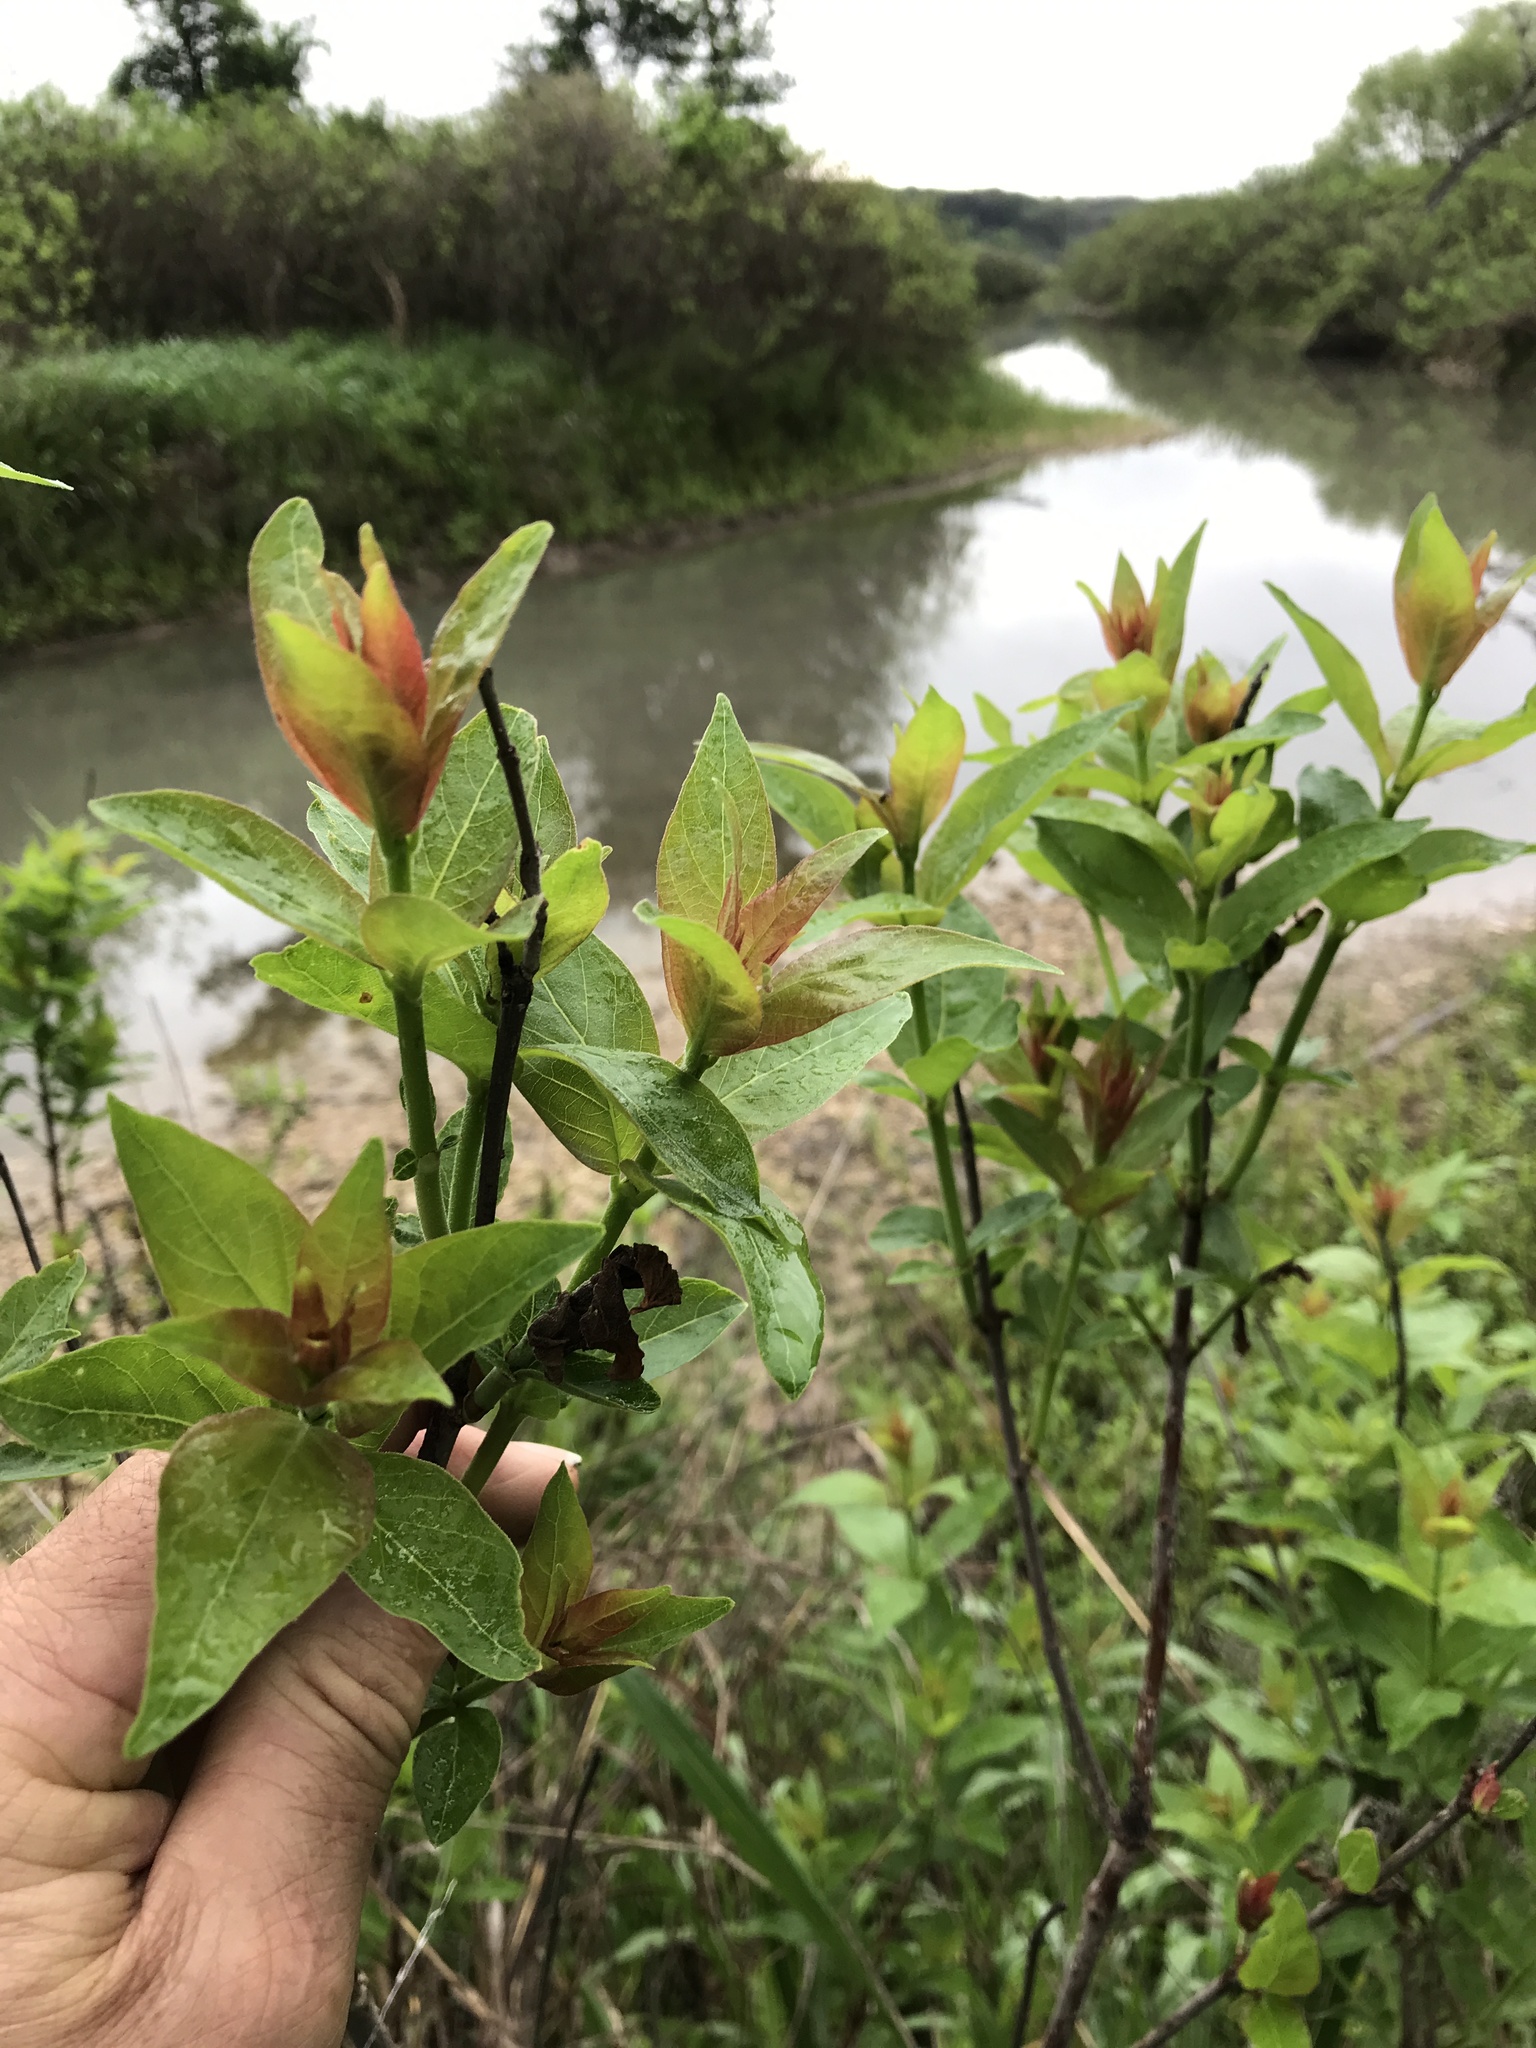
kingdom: Plantae
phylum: Tracheophyta
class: Magnoliopsida
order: Gentianales
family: Rubiaceae
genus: Cephalanthus
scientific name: Cephalanthus occidentalis
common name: Button-willow
